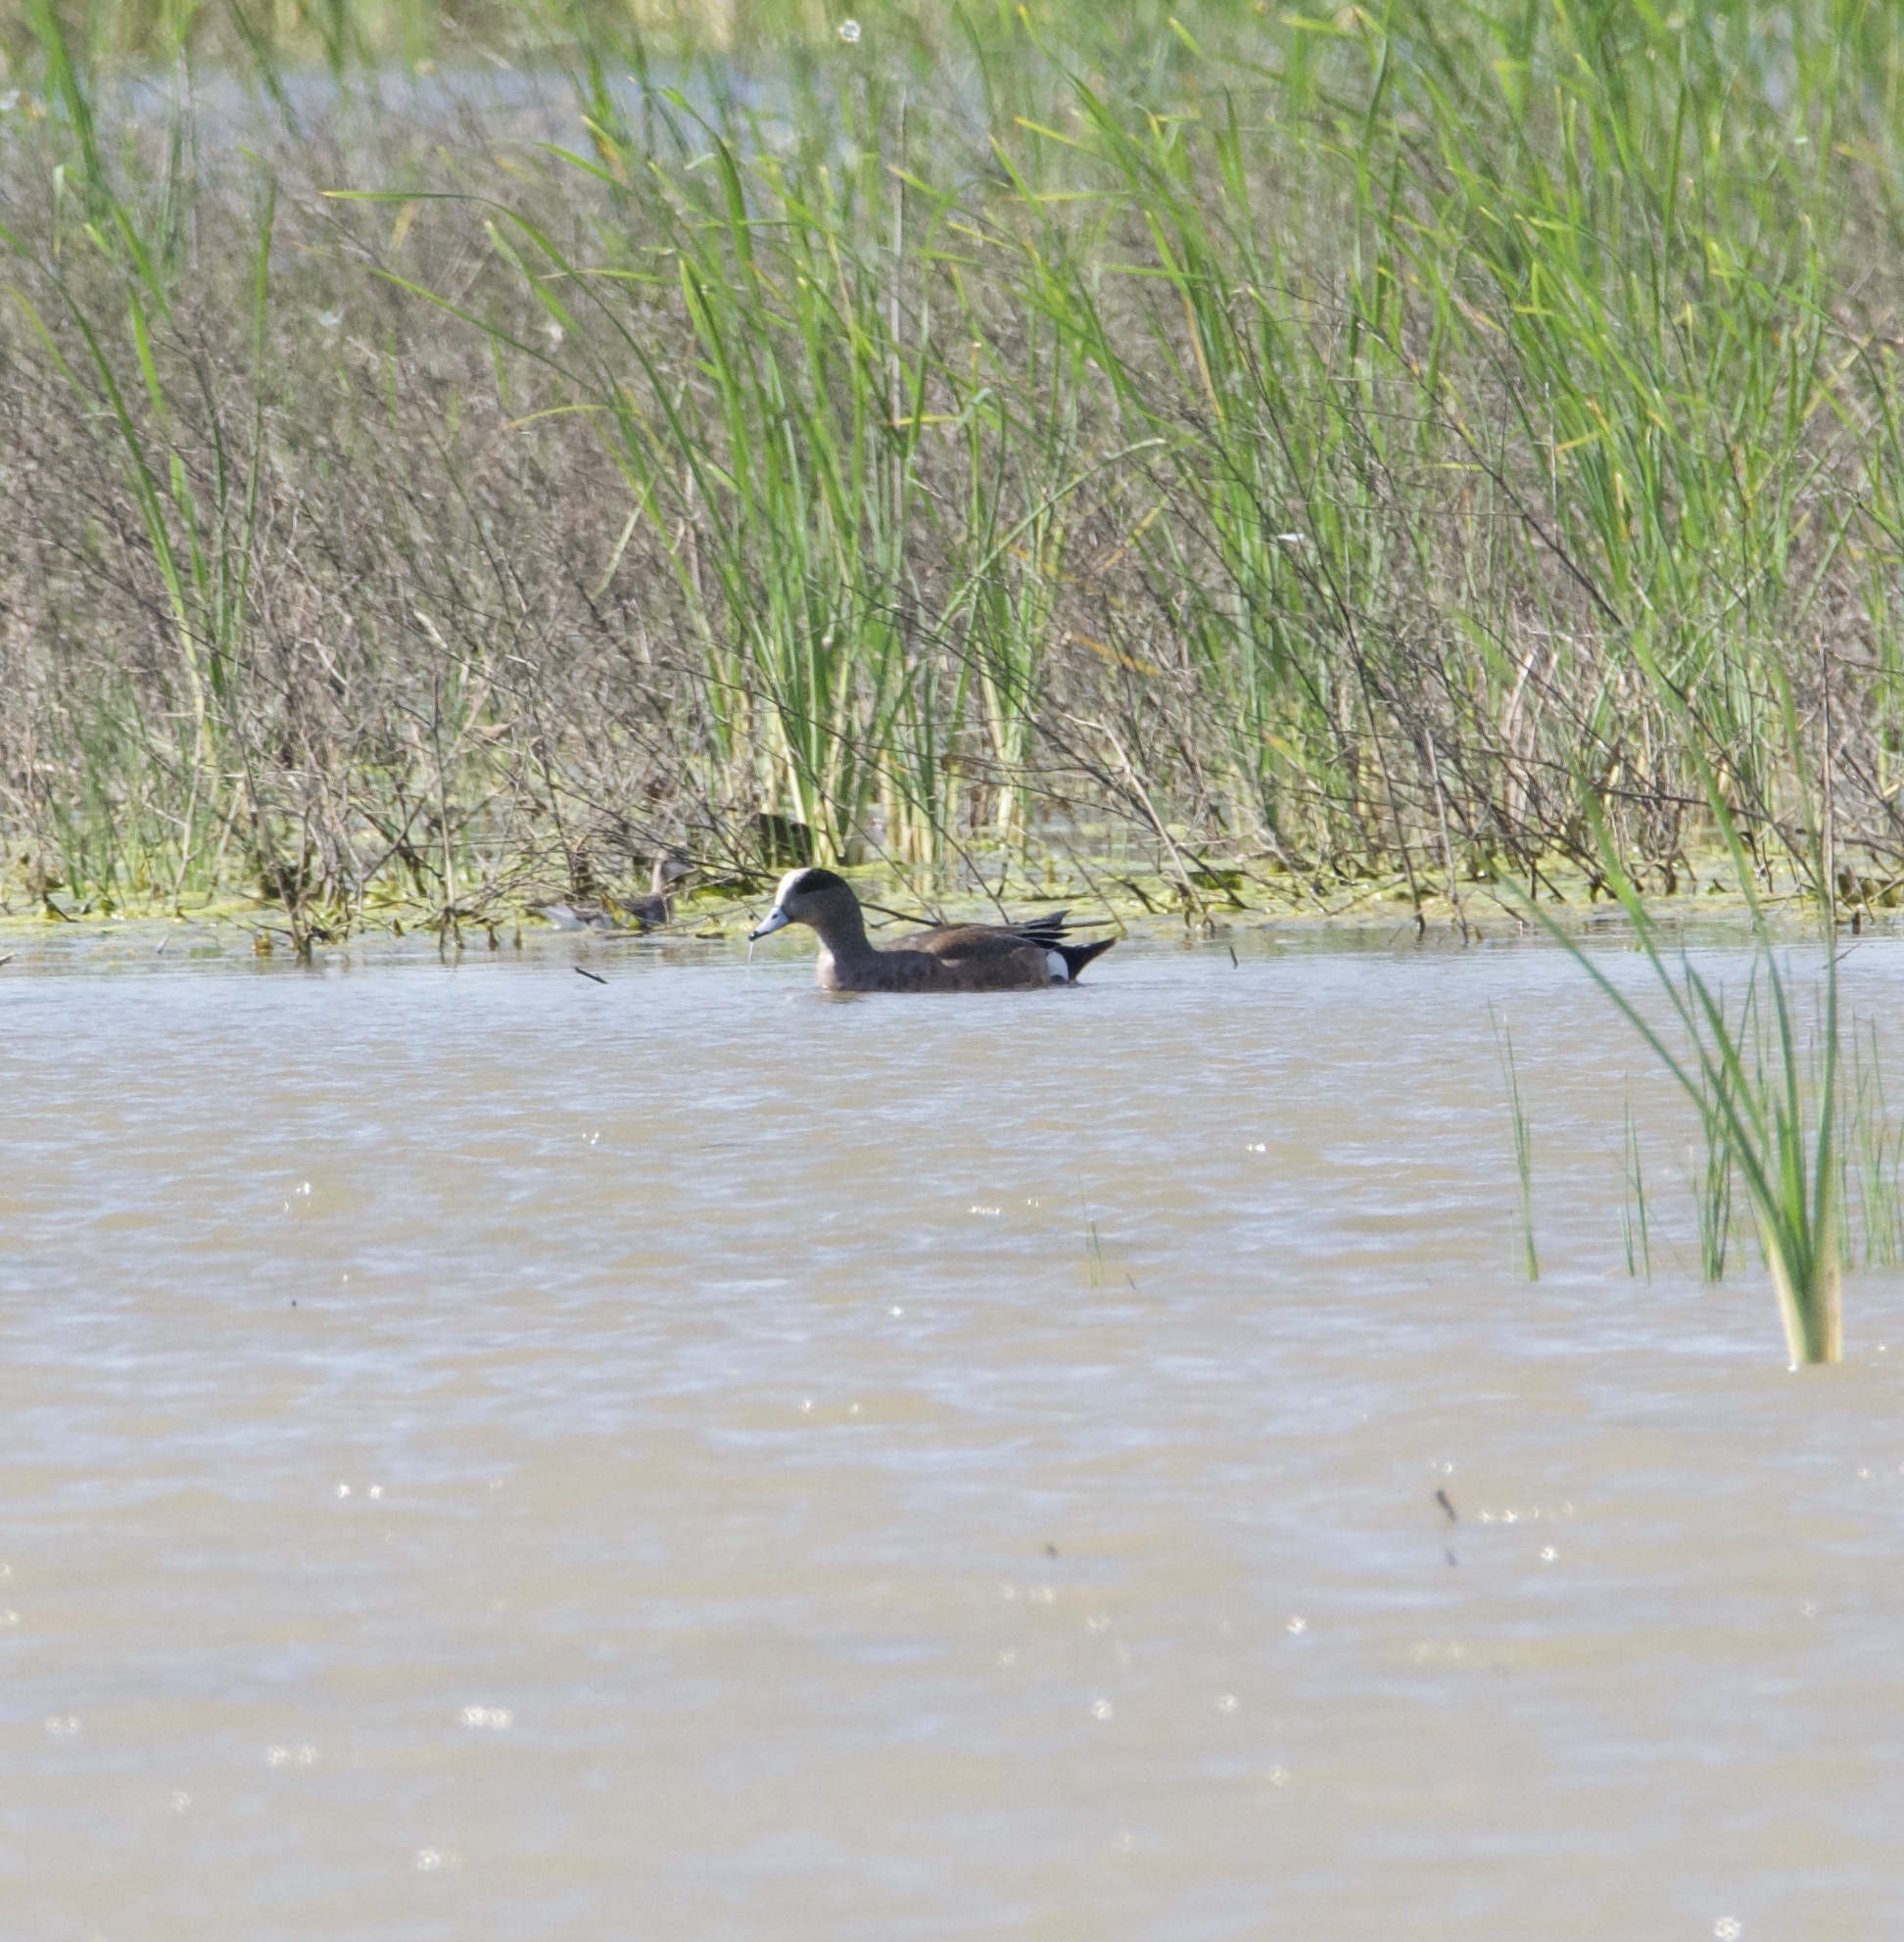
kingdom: Animalia
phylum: Chordata
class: Aves
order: Anseriformes
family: Anatidae
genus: Mareca
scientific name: Mareca americana
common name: American wigeon
